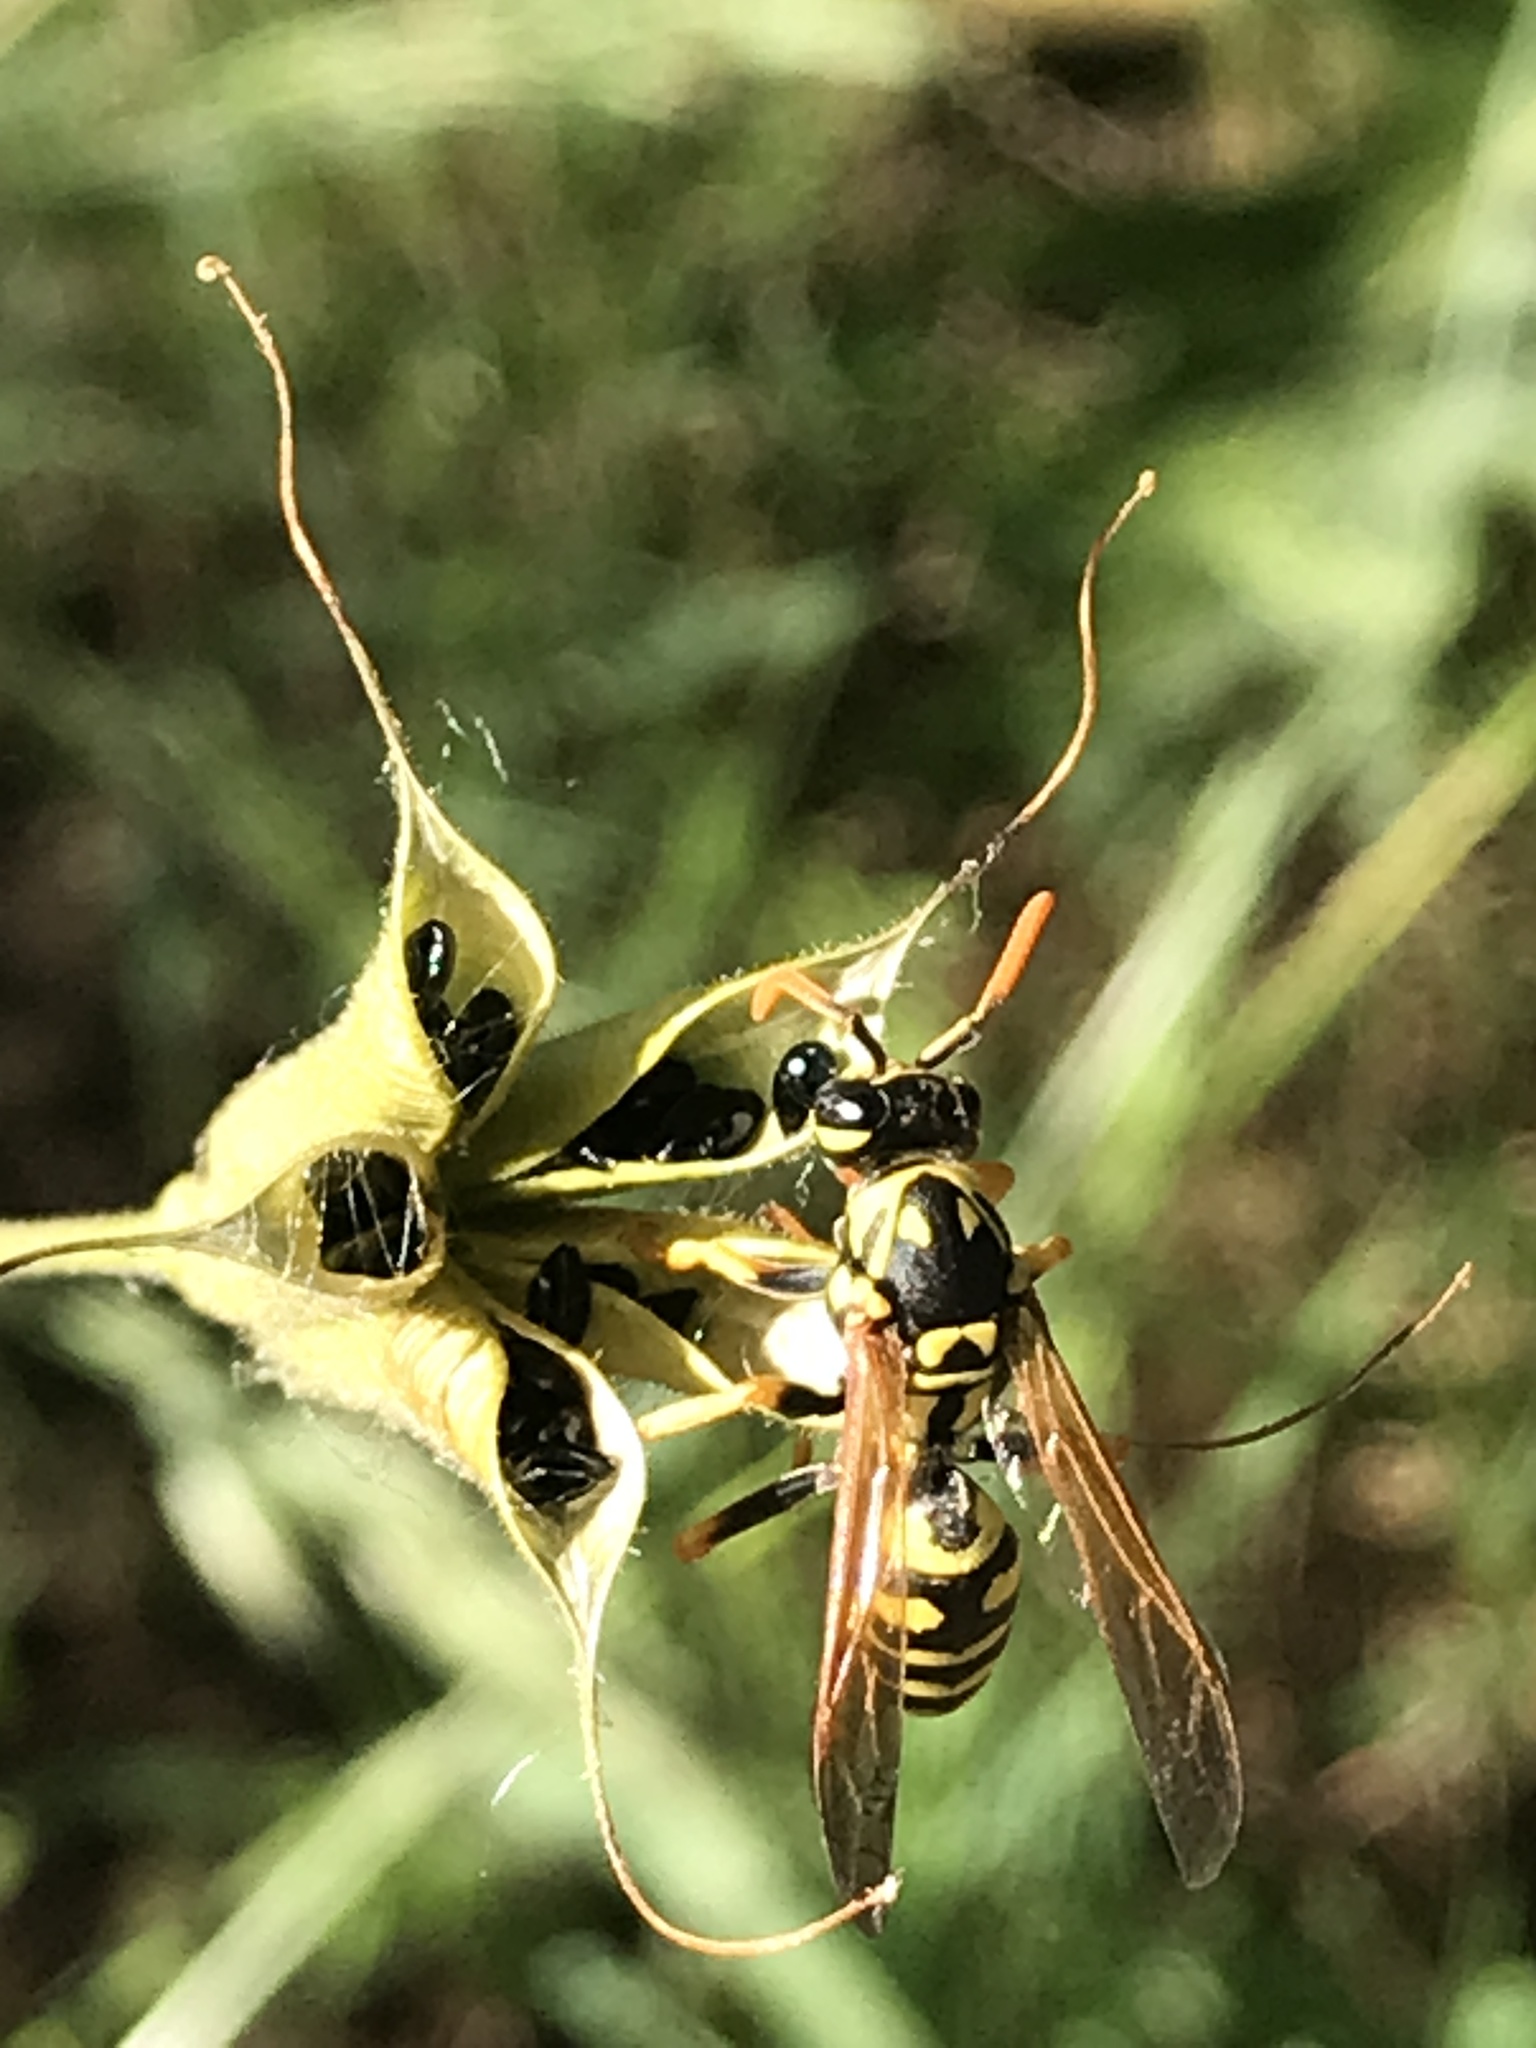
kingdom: Animalia
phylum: Arthropoda
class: Insecta
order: Hymenoptera
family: Eumenidae
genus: Polistes
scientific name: Polistes dominula
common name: Paper wasp
